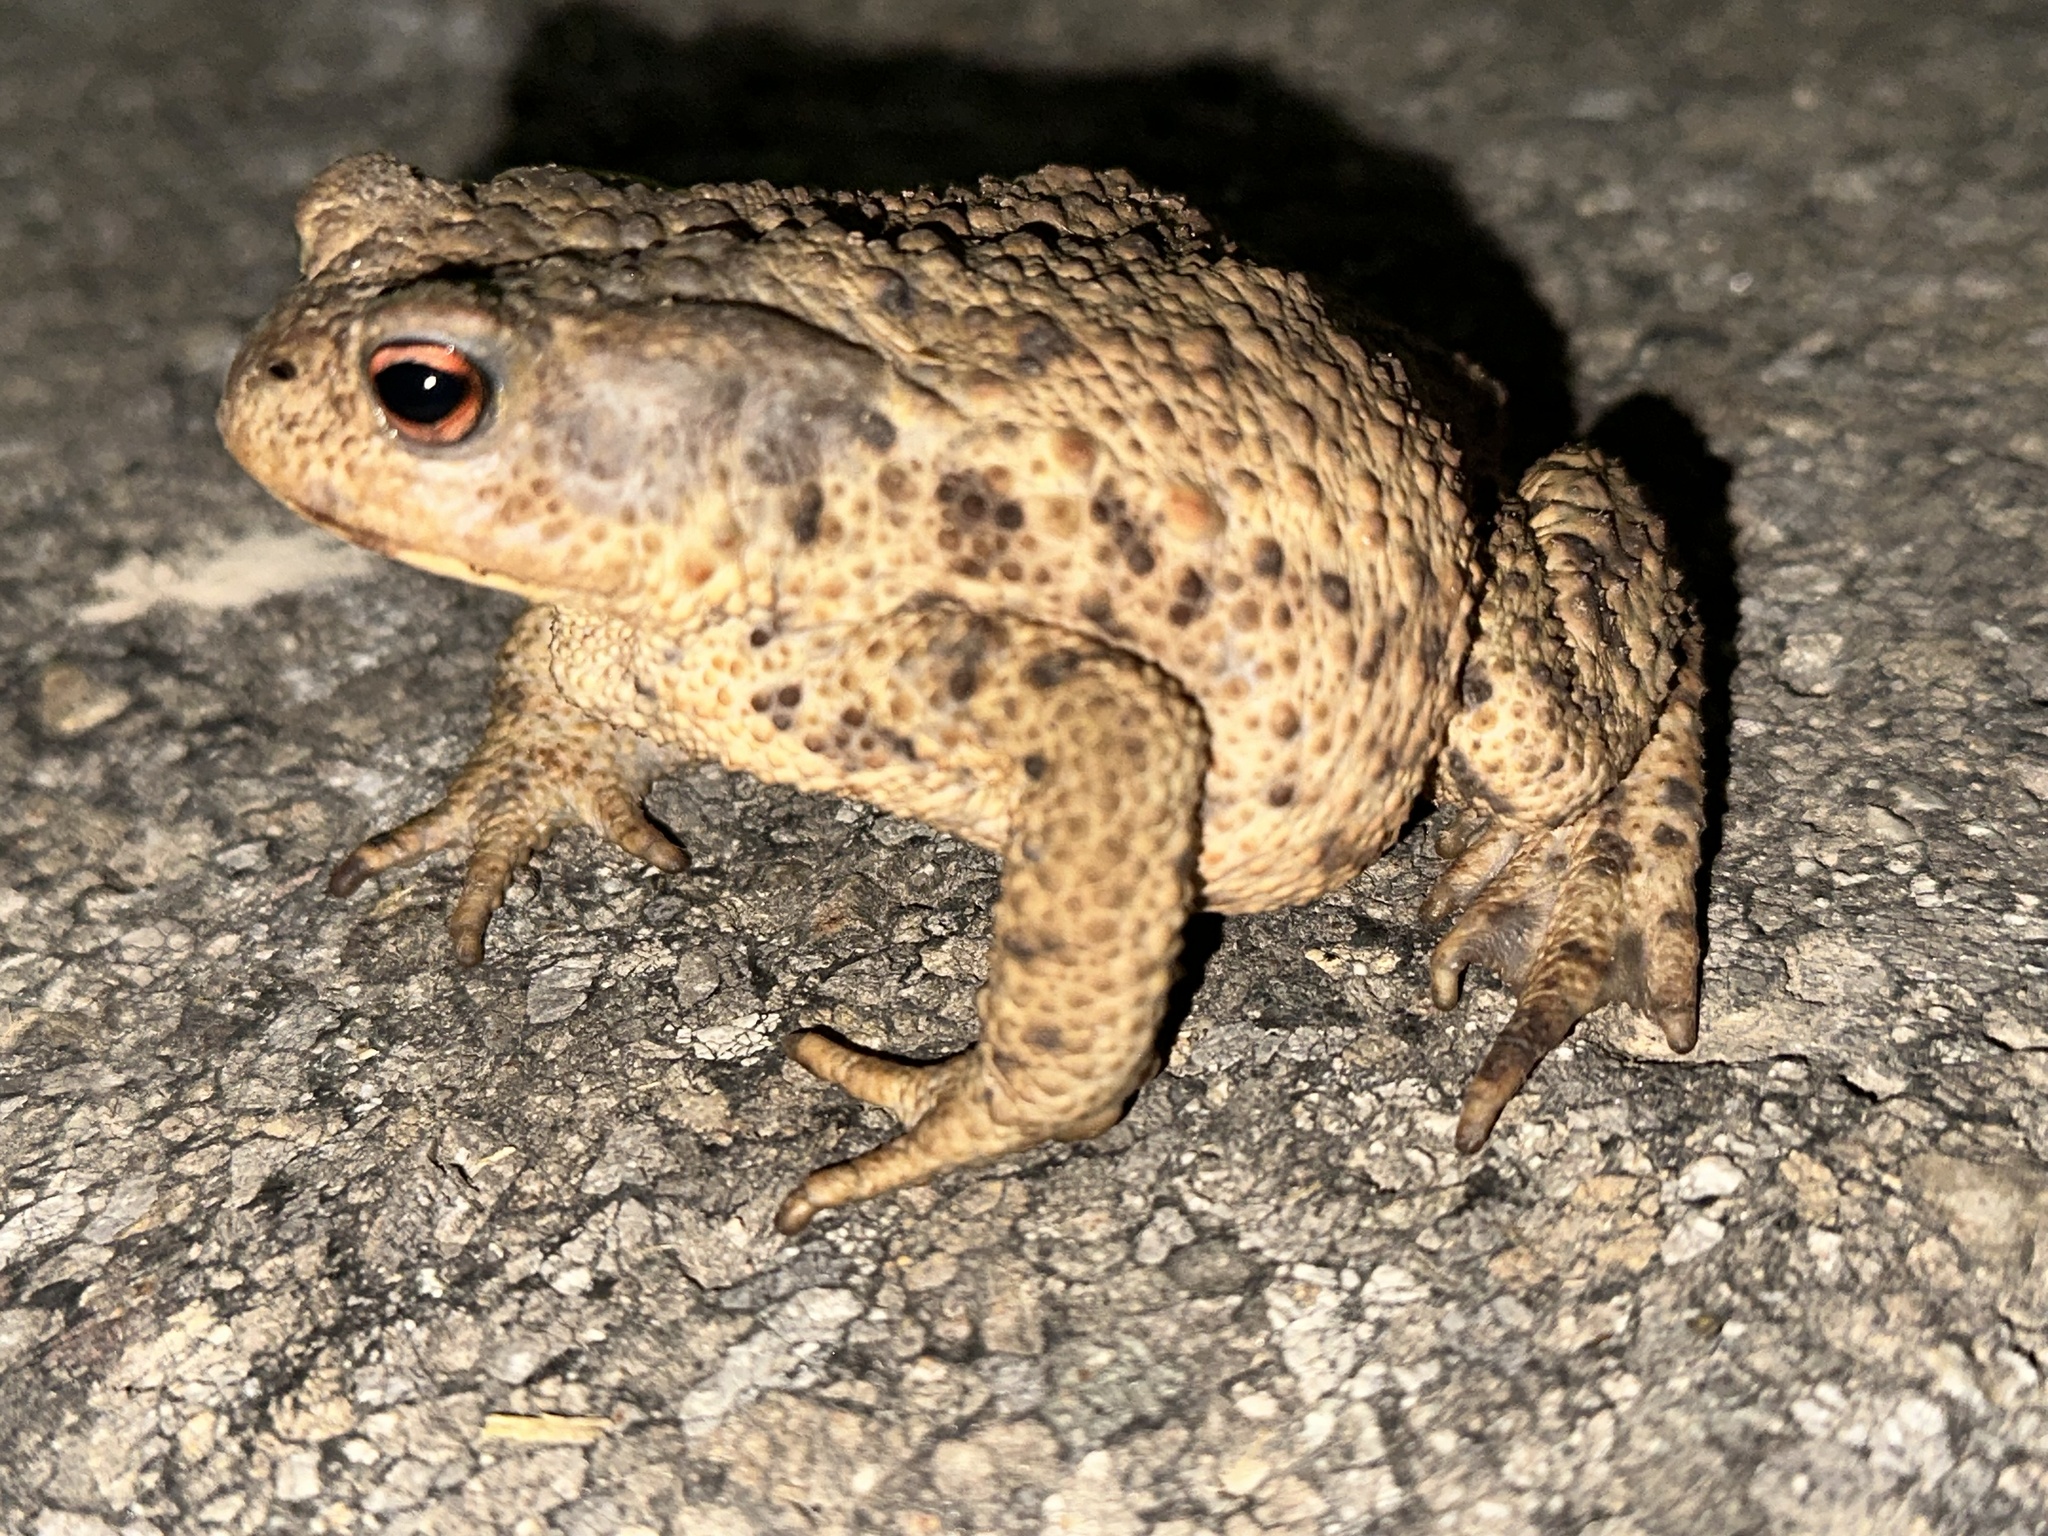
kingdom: Animalia
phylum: Chordata
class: Amphibia
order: Anura
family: Bufonidae
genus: Bufo
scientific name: Bufo bufo
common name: Common toad
